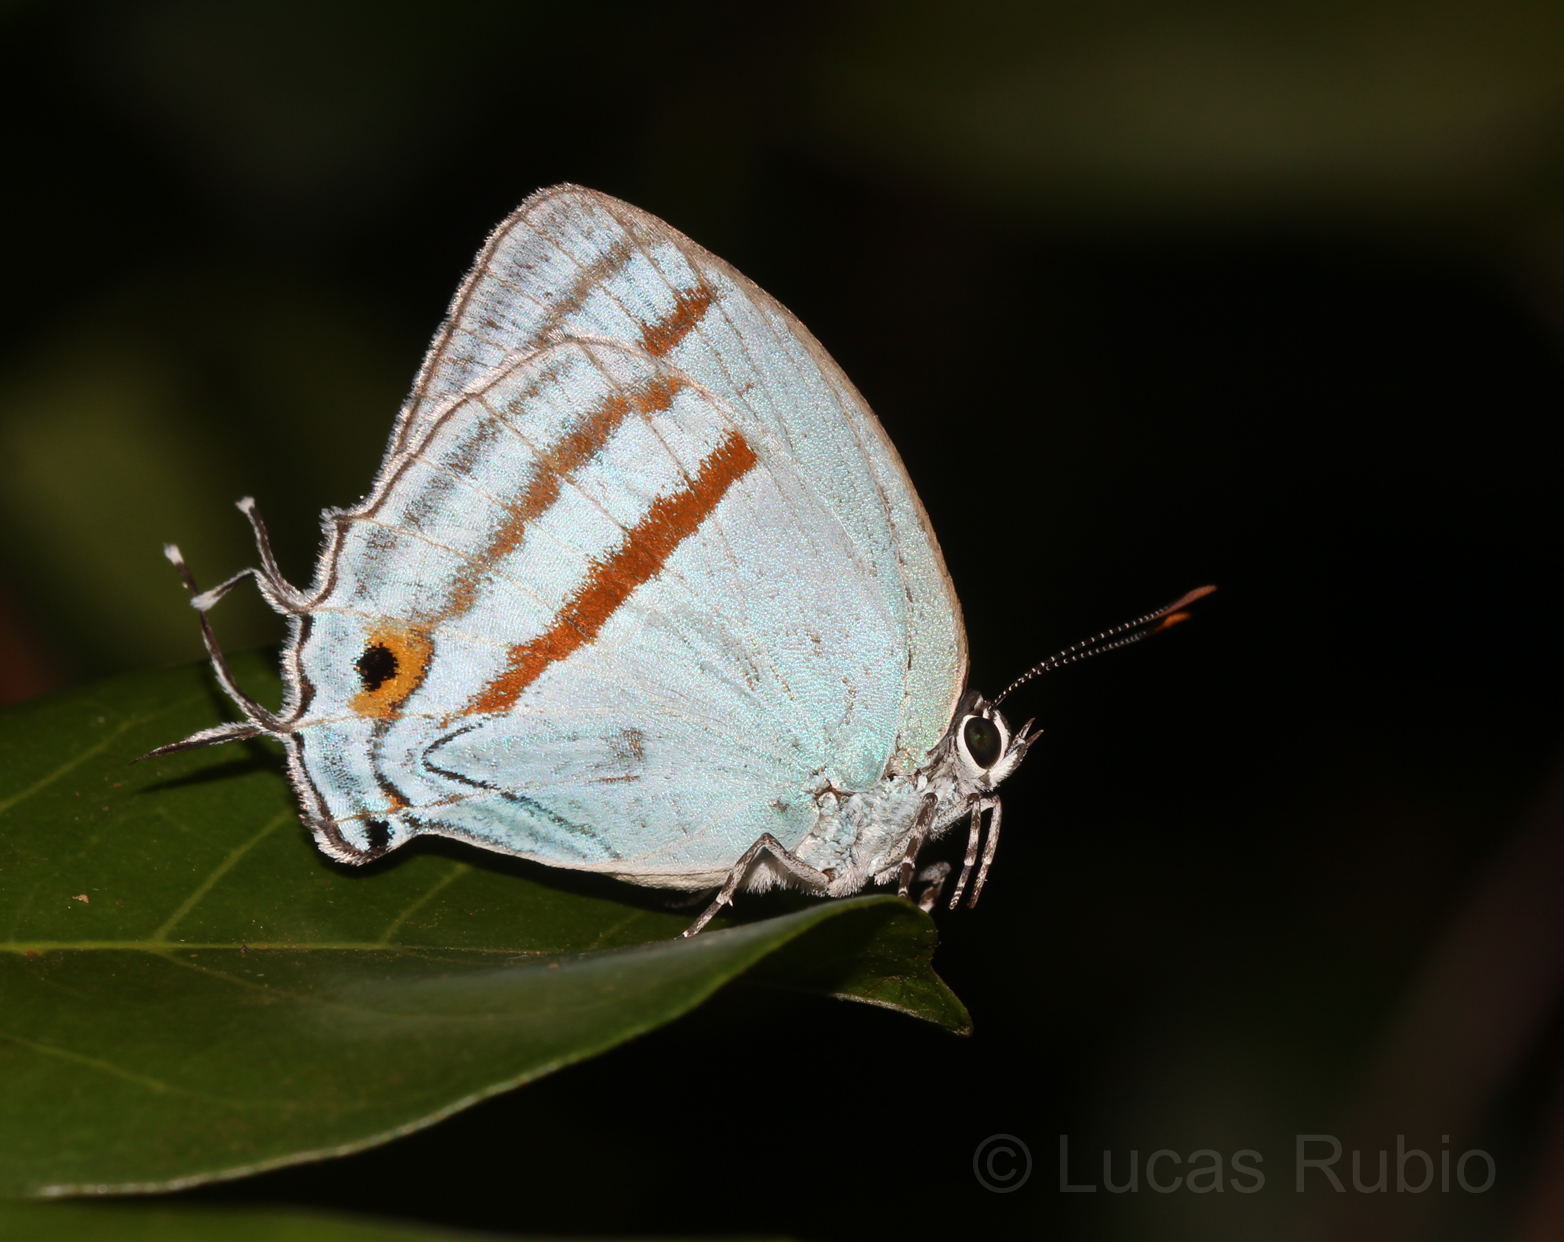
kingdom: Animalia
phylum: Arthropoda
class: Insecta
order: Lepidoptera
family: Lycaenidae
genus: Paiwarria
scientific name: Paiwarria venulius
